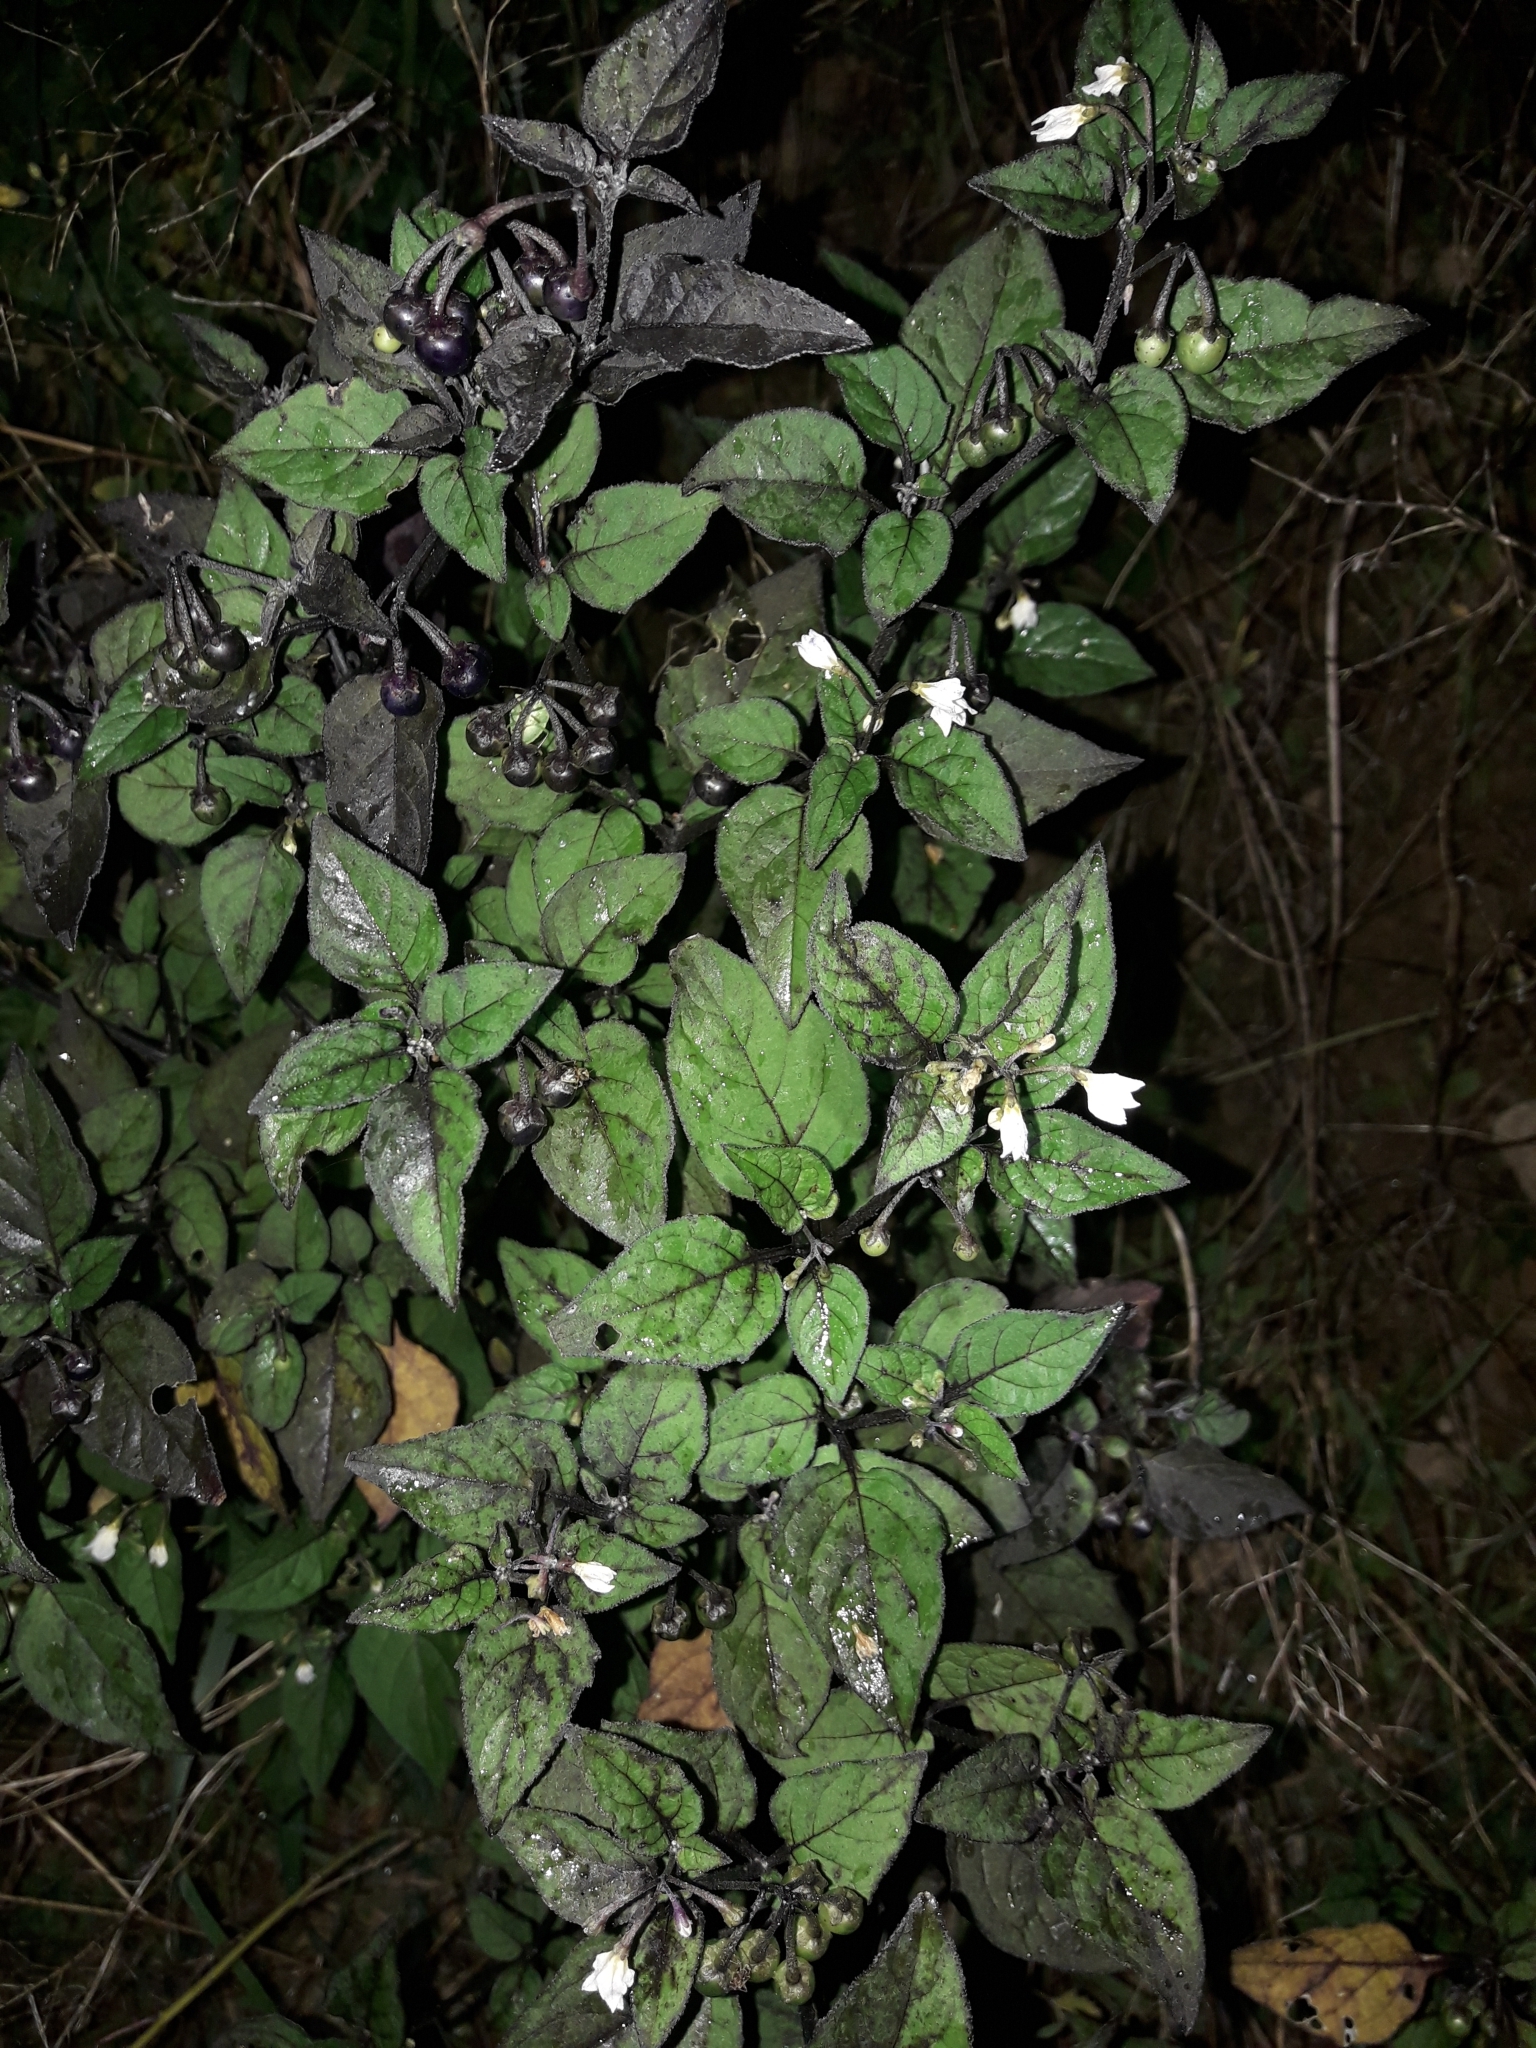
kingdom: Plantae
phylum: Tracheophyta
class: Magnoliopsida
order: Solanales
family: Solanaceae
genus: Solanum
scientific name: Solanum nigrum
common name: Black nightshade
